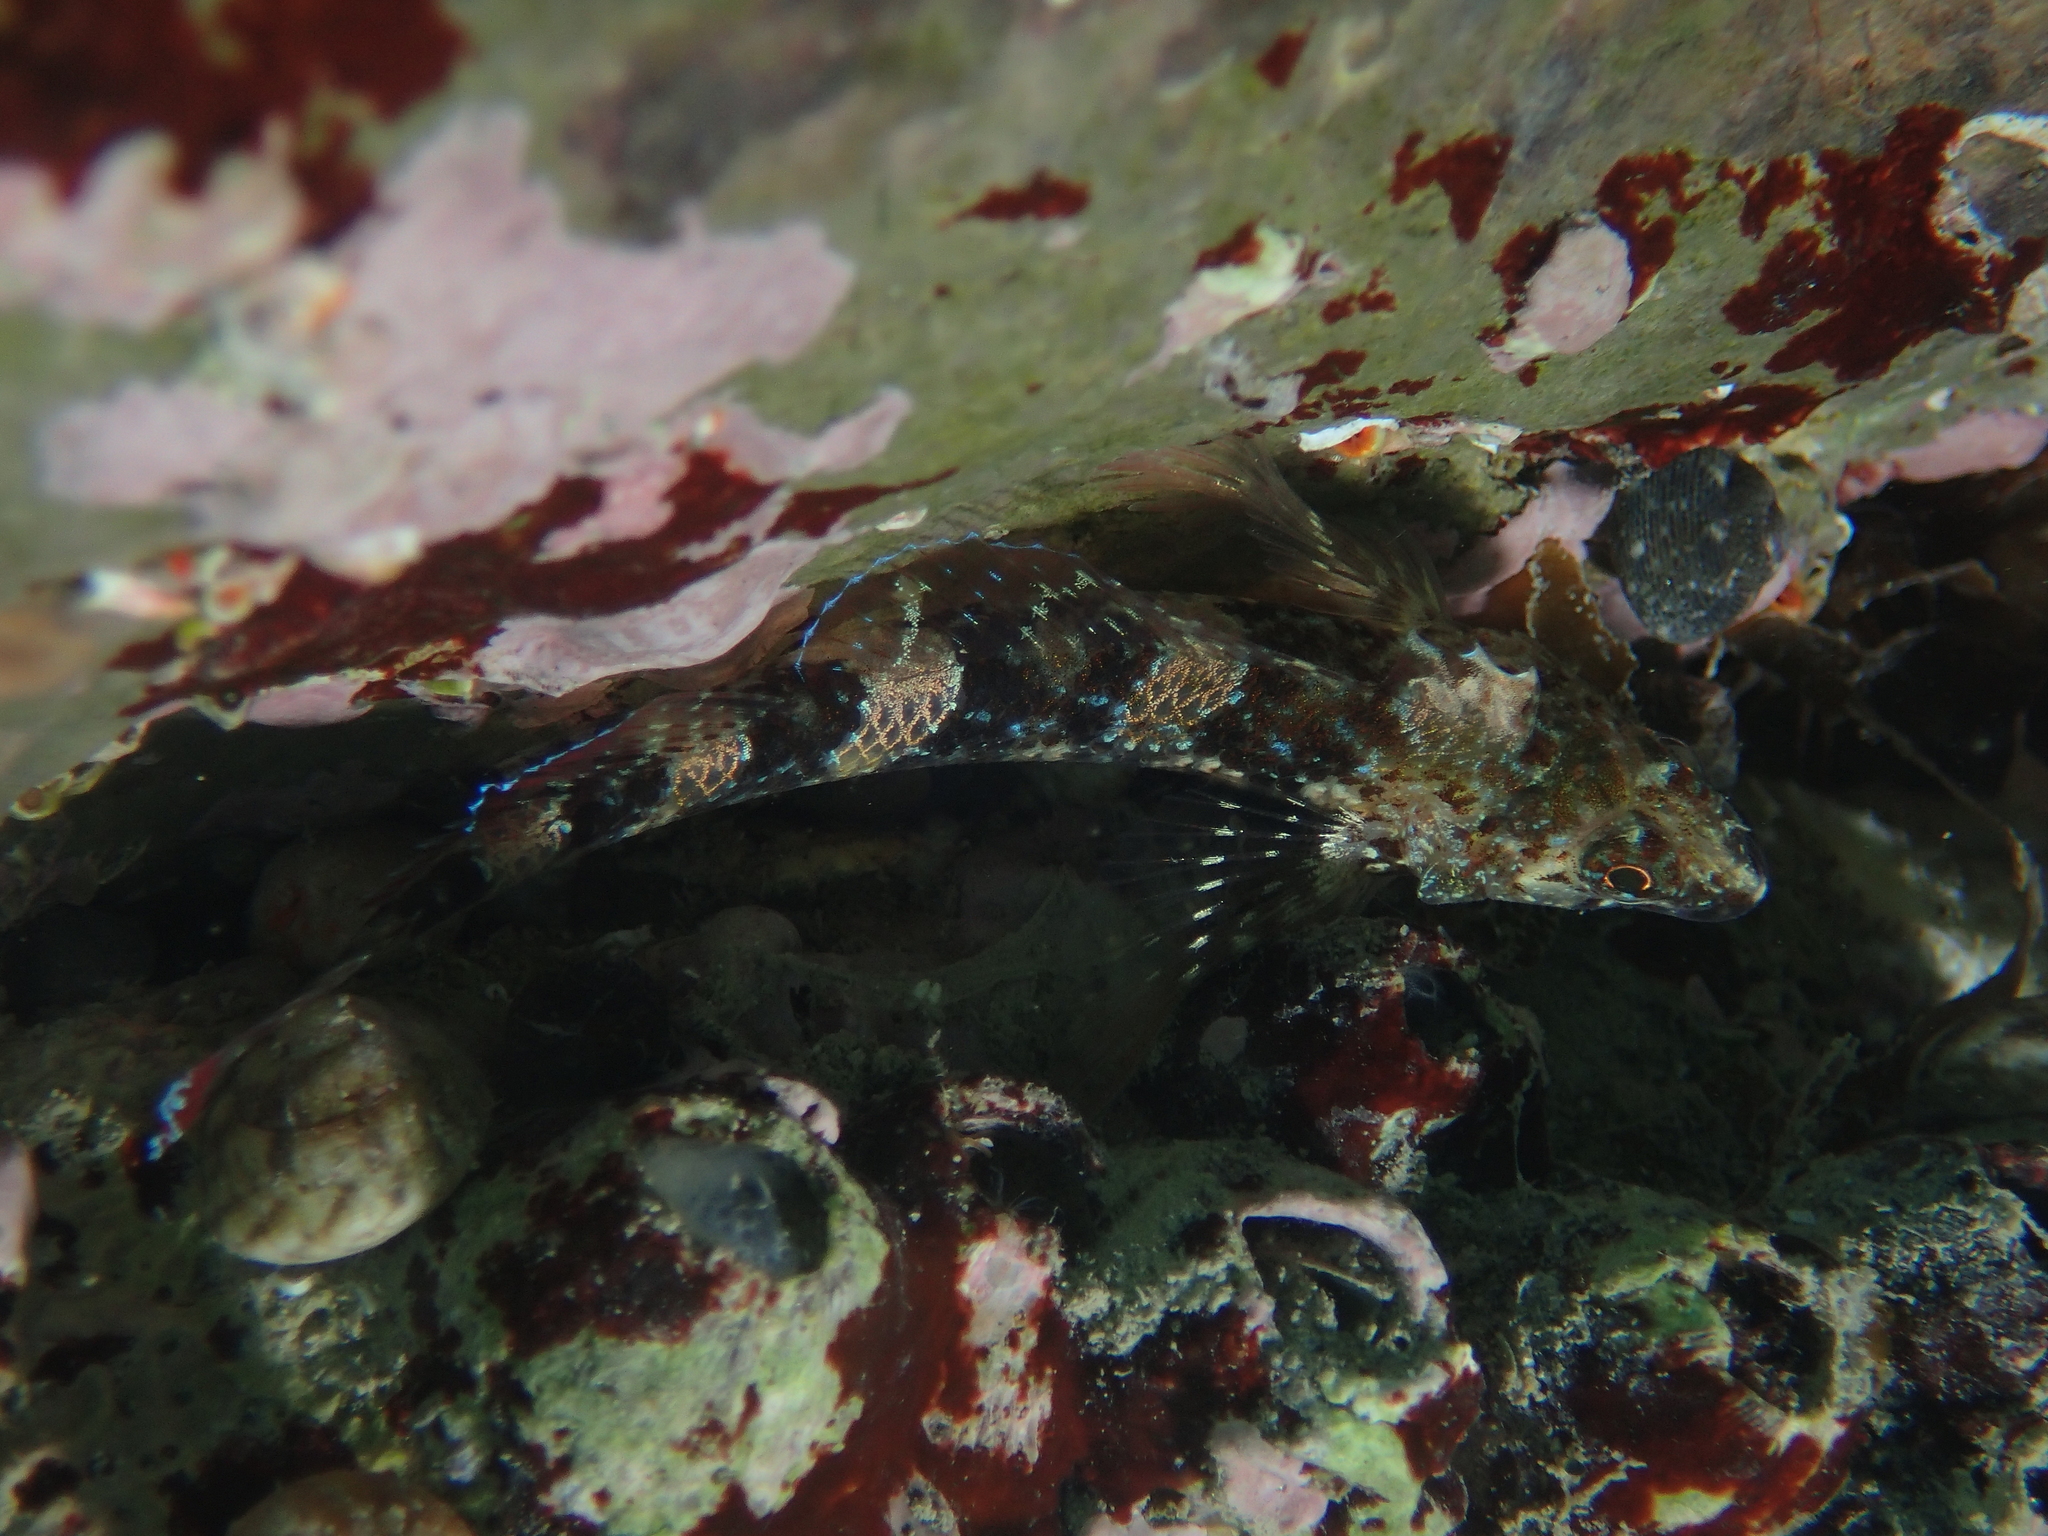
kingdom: Animalia
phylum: Chordata
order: Perciformes
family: Tripterygiidae
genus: Tripterygion
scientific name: Tripterygion tripteronotum
